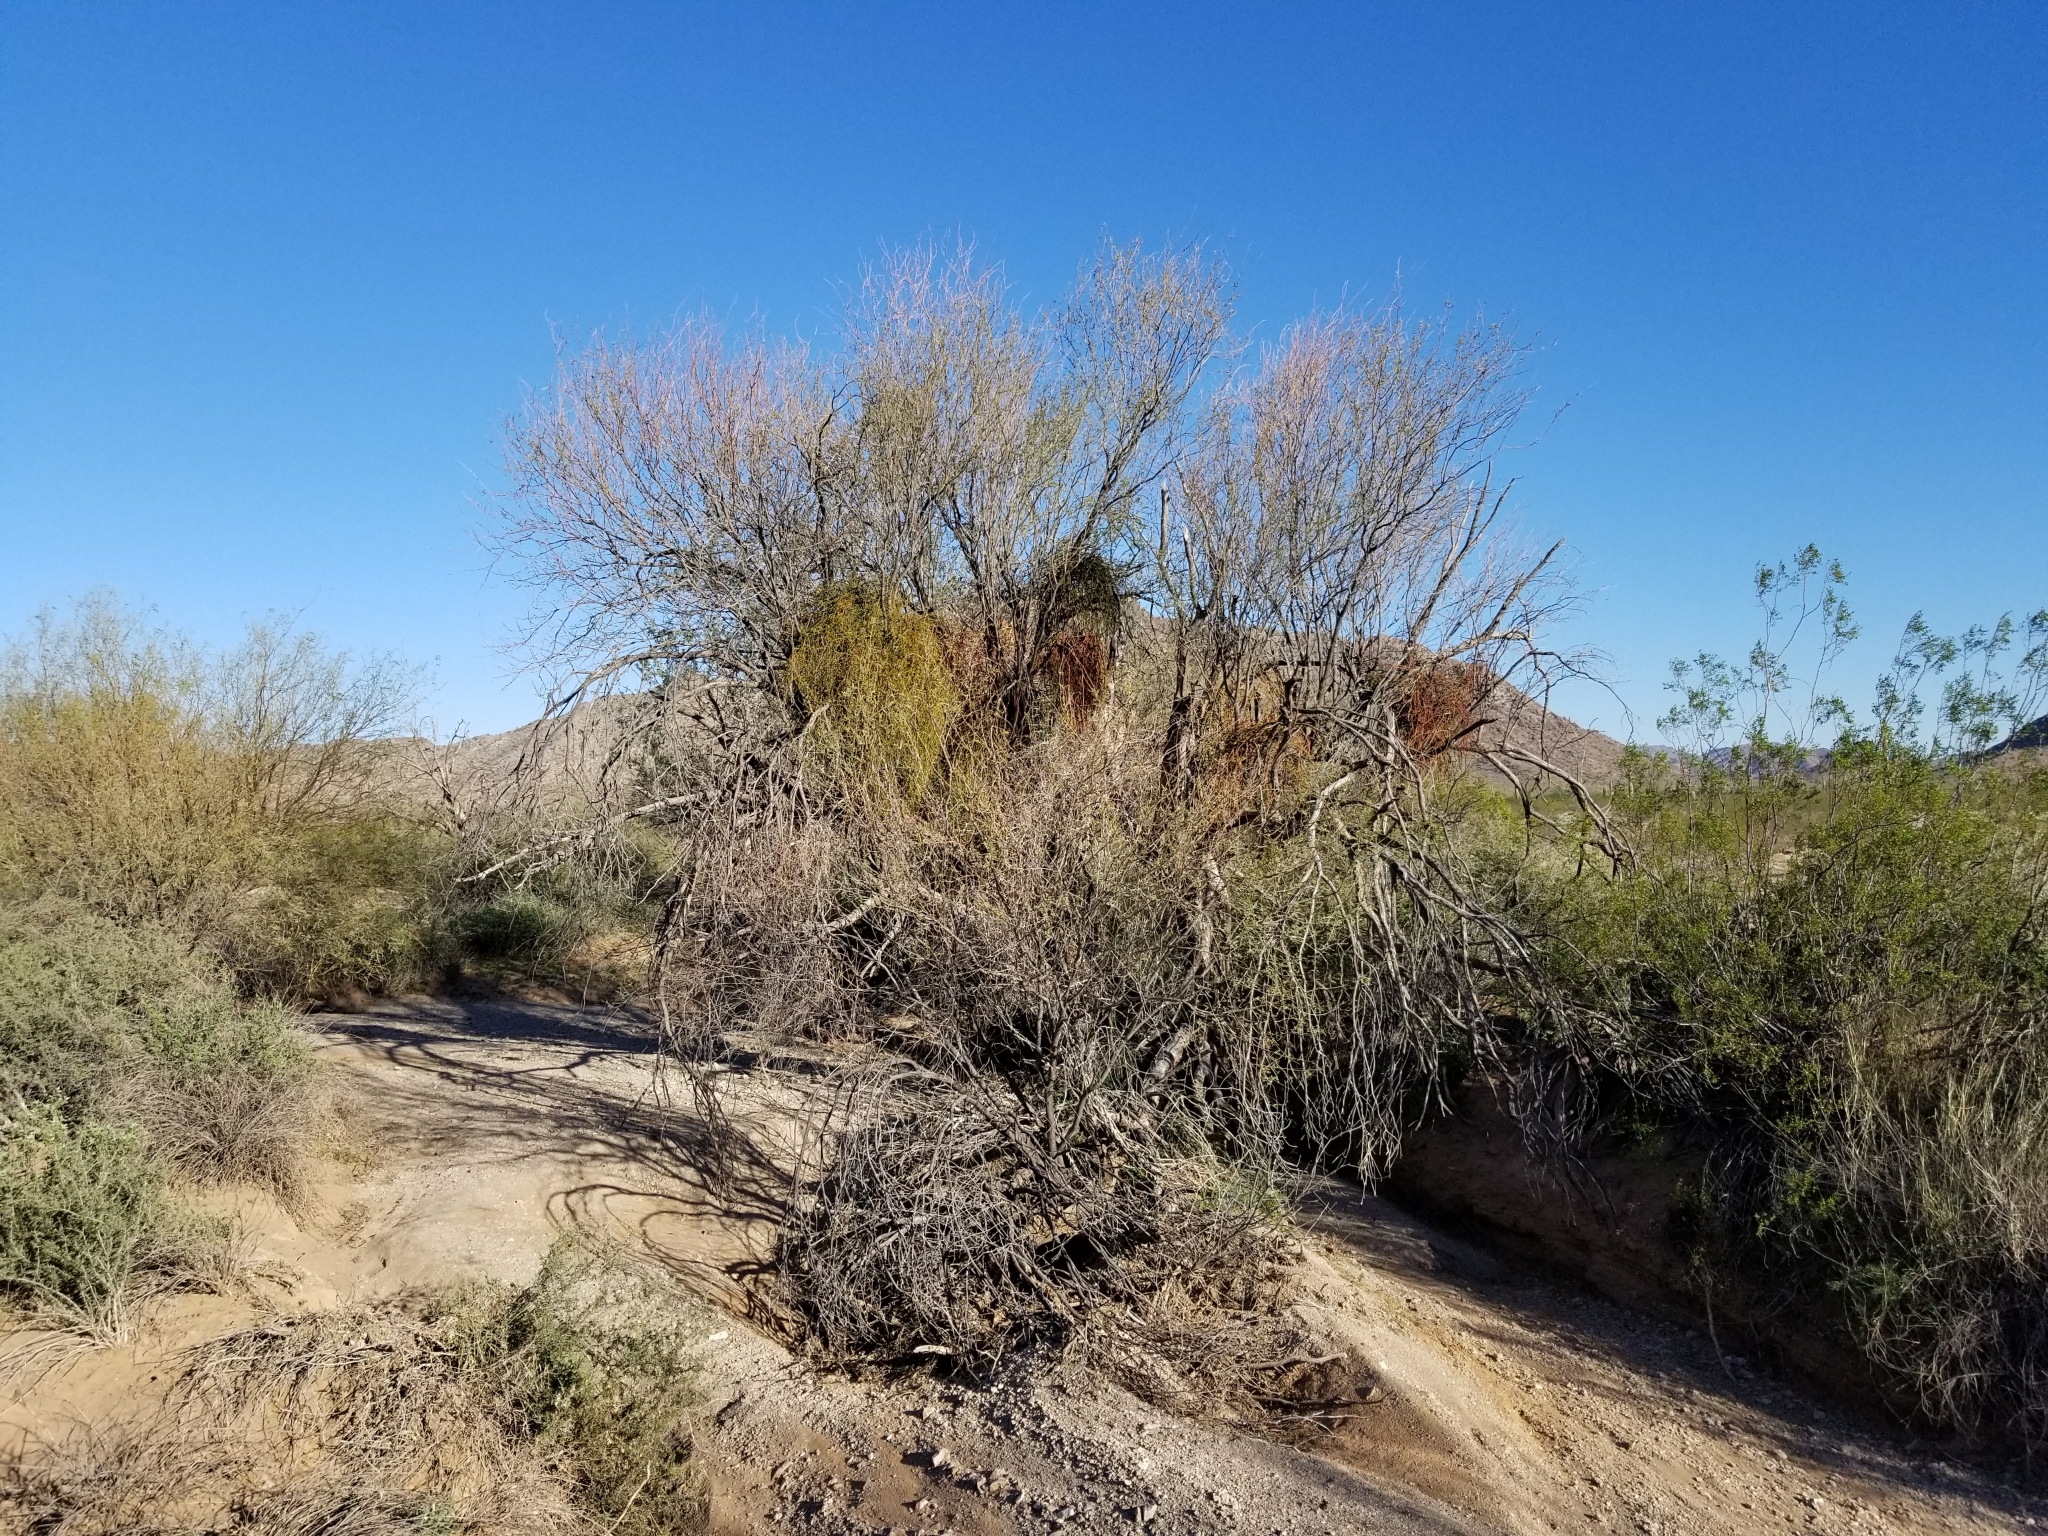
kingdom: Plantae
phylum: Tracheophyta
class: Magnoliopsida
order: Santalales
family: Viscaceae
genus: Phoradendron
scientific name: Phoradendron californicum
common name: Acacia mistletoe
